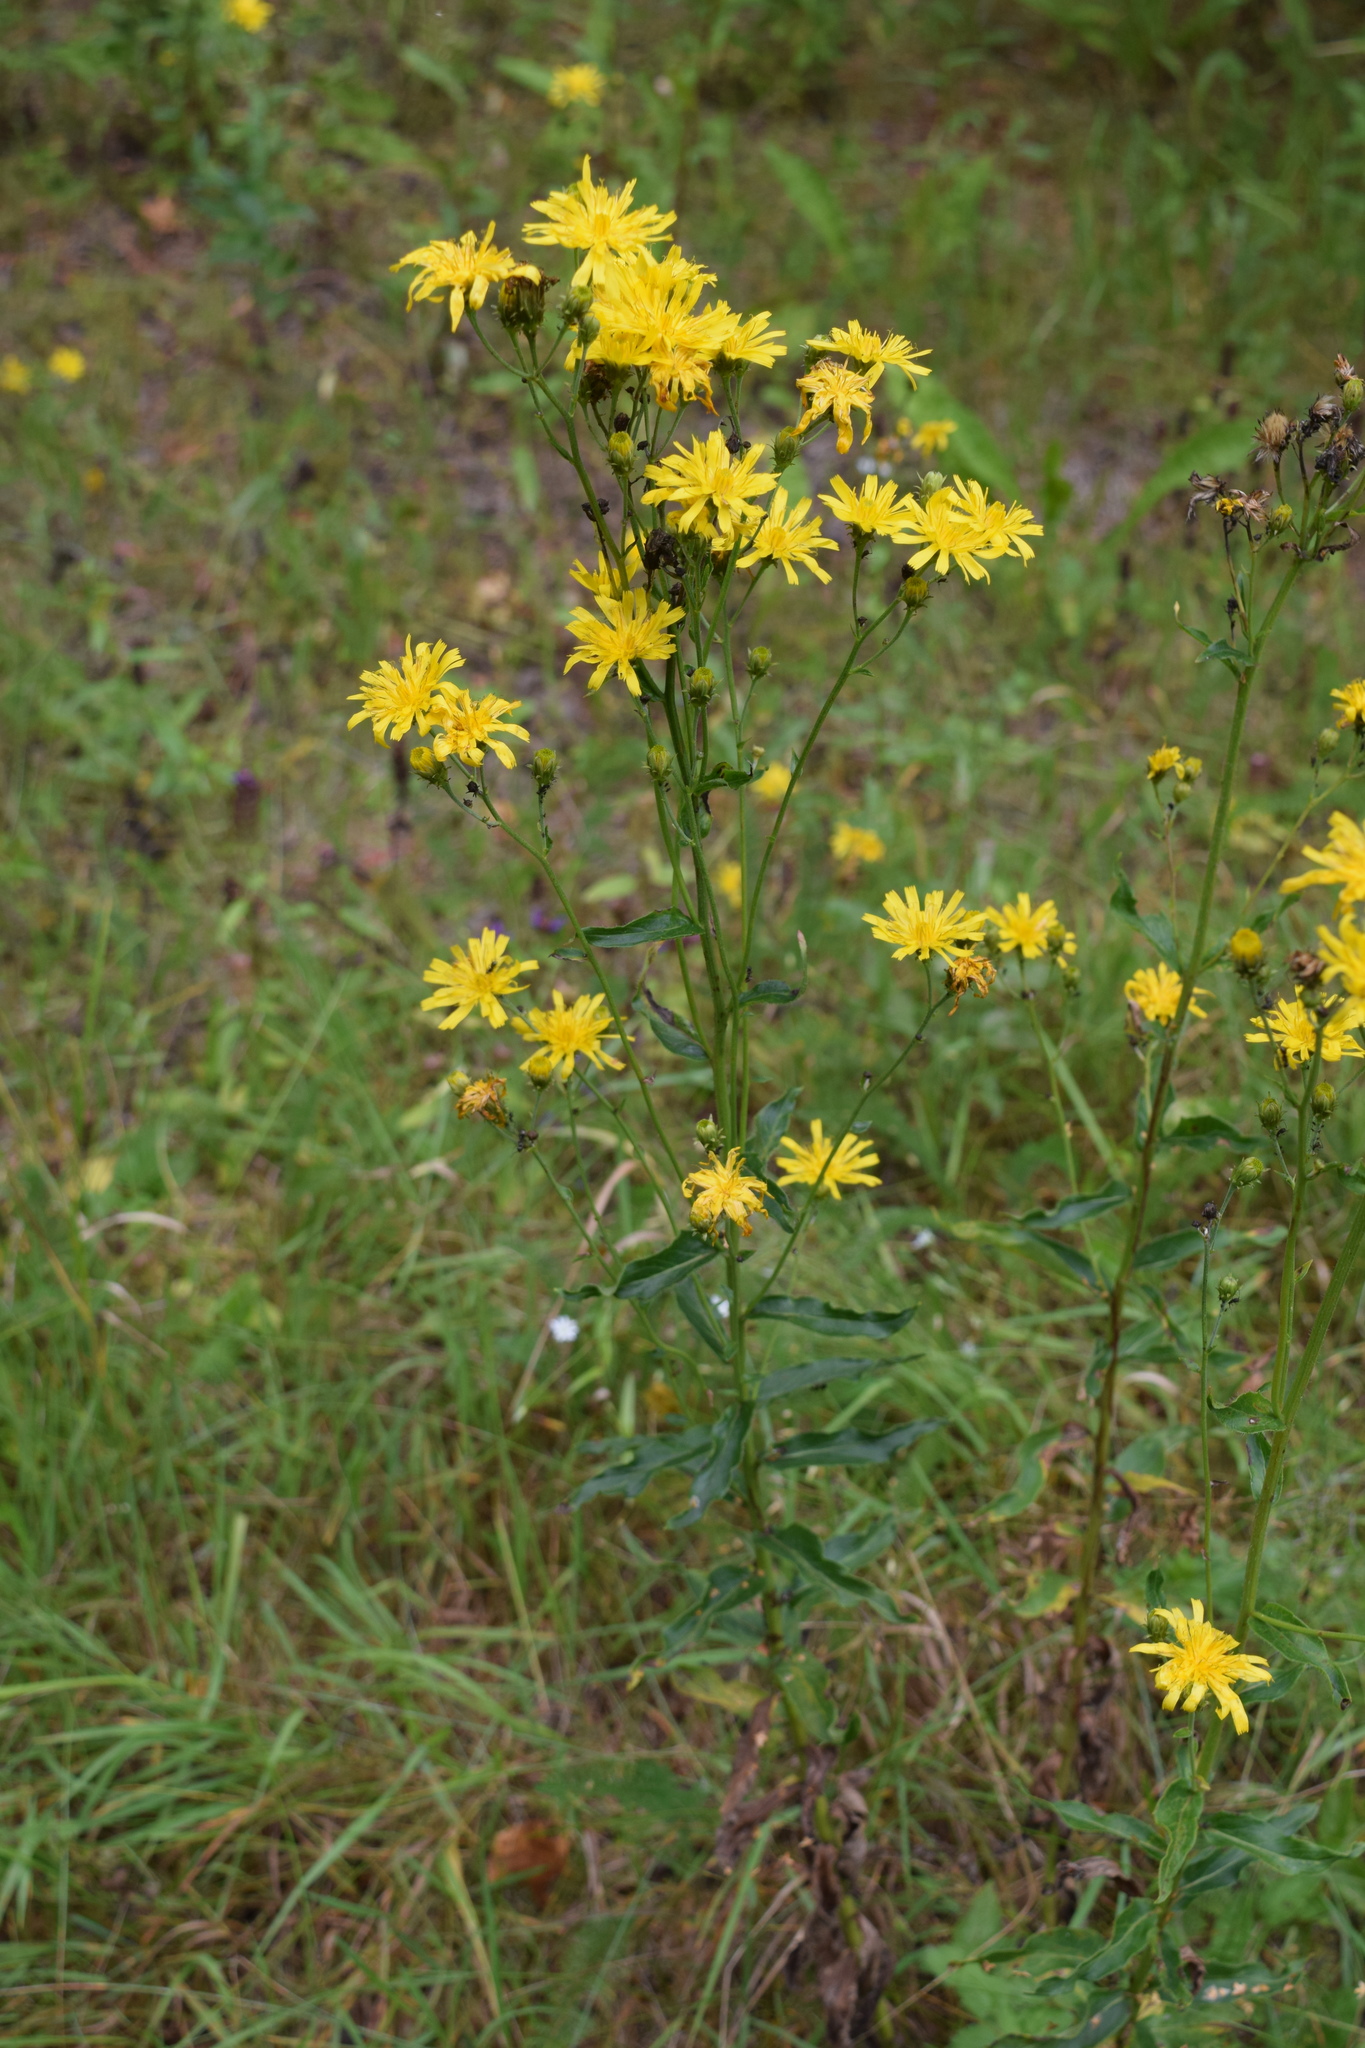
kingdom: Plantae
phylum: Tracheophyta
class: Magnoliopsida
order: Asterales
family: Asteraceae
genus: Hieracium
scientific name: Hieracium umbellatum
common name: Northern hawkweed
